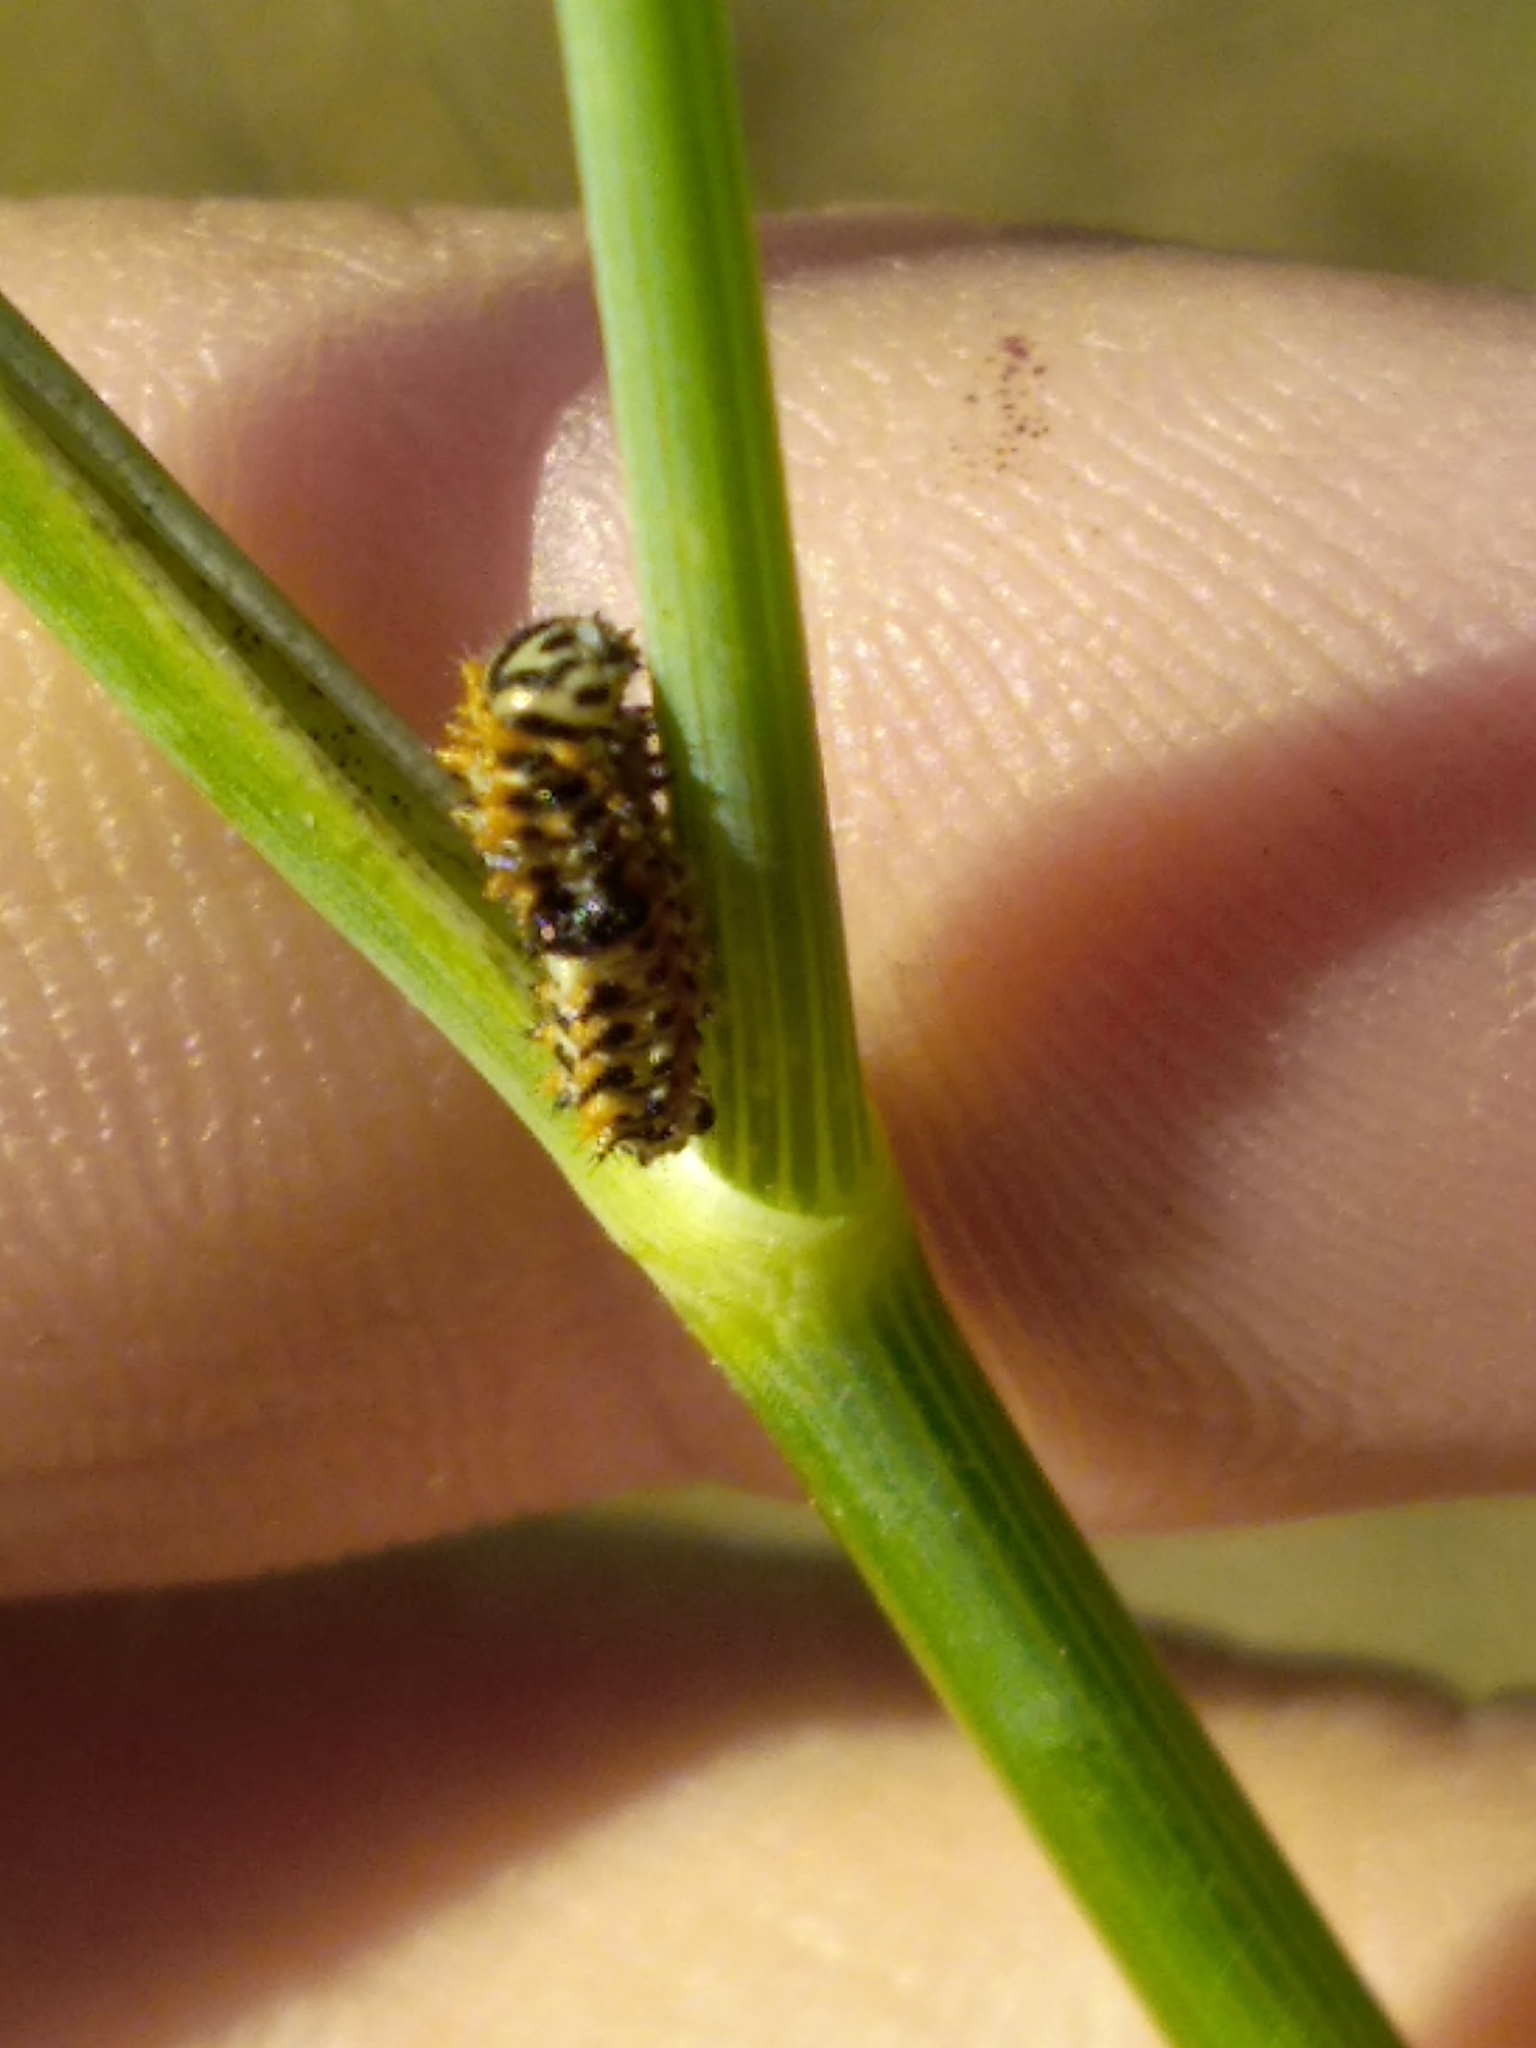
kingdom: Animalia
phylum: Arthropoda
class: Insecta
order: Lepidoptera
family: Papilionidae
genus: Papilio
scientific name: Papilio machaon
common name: Swallowtail
